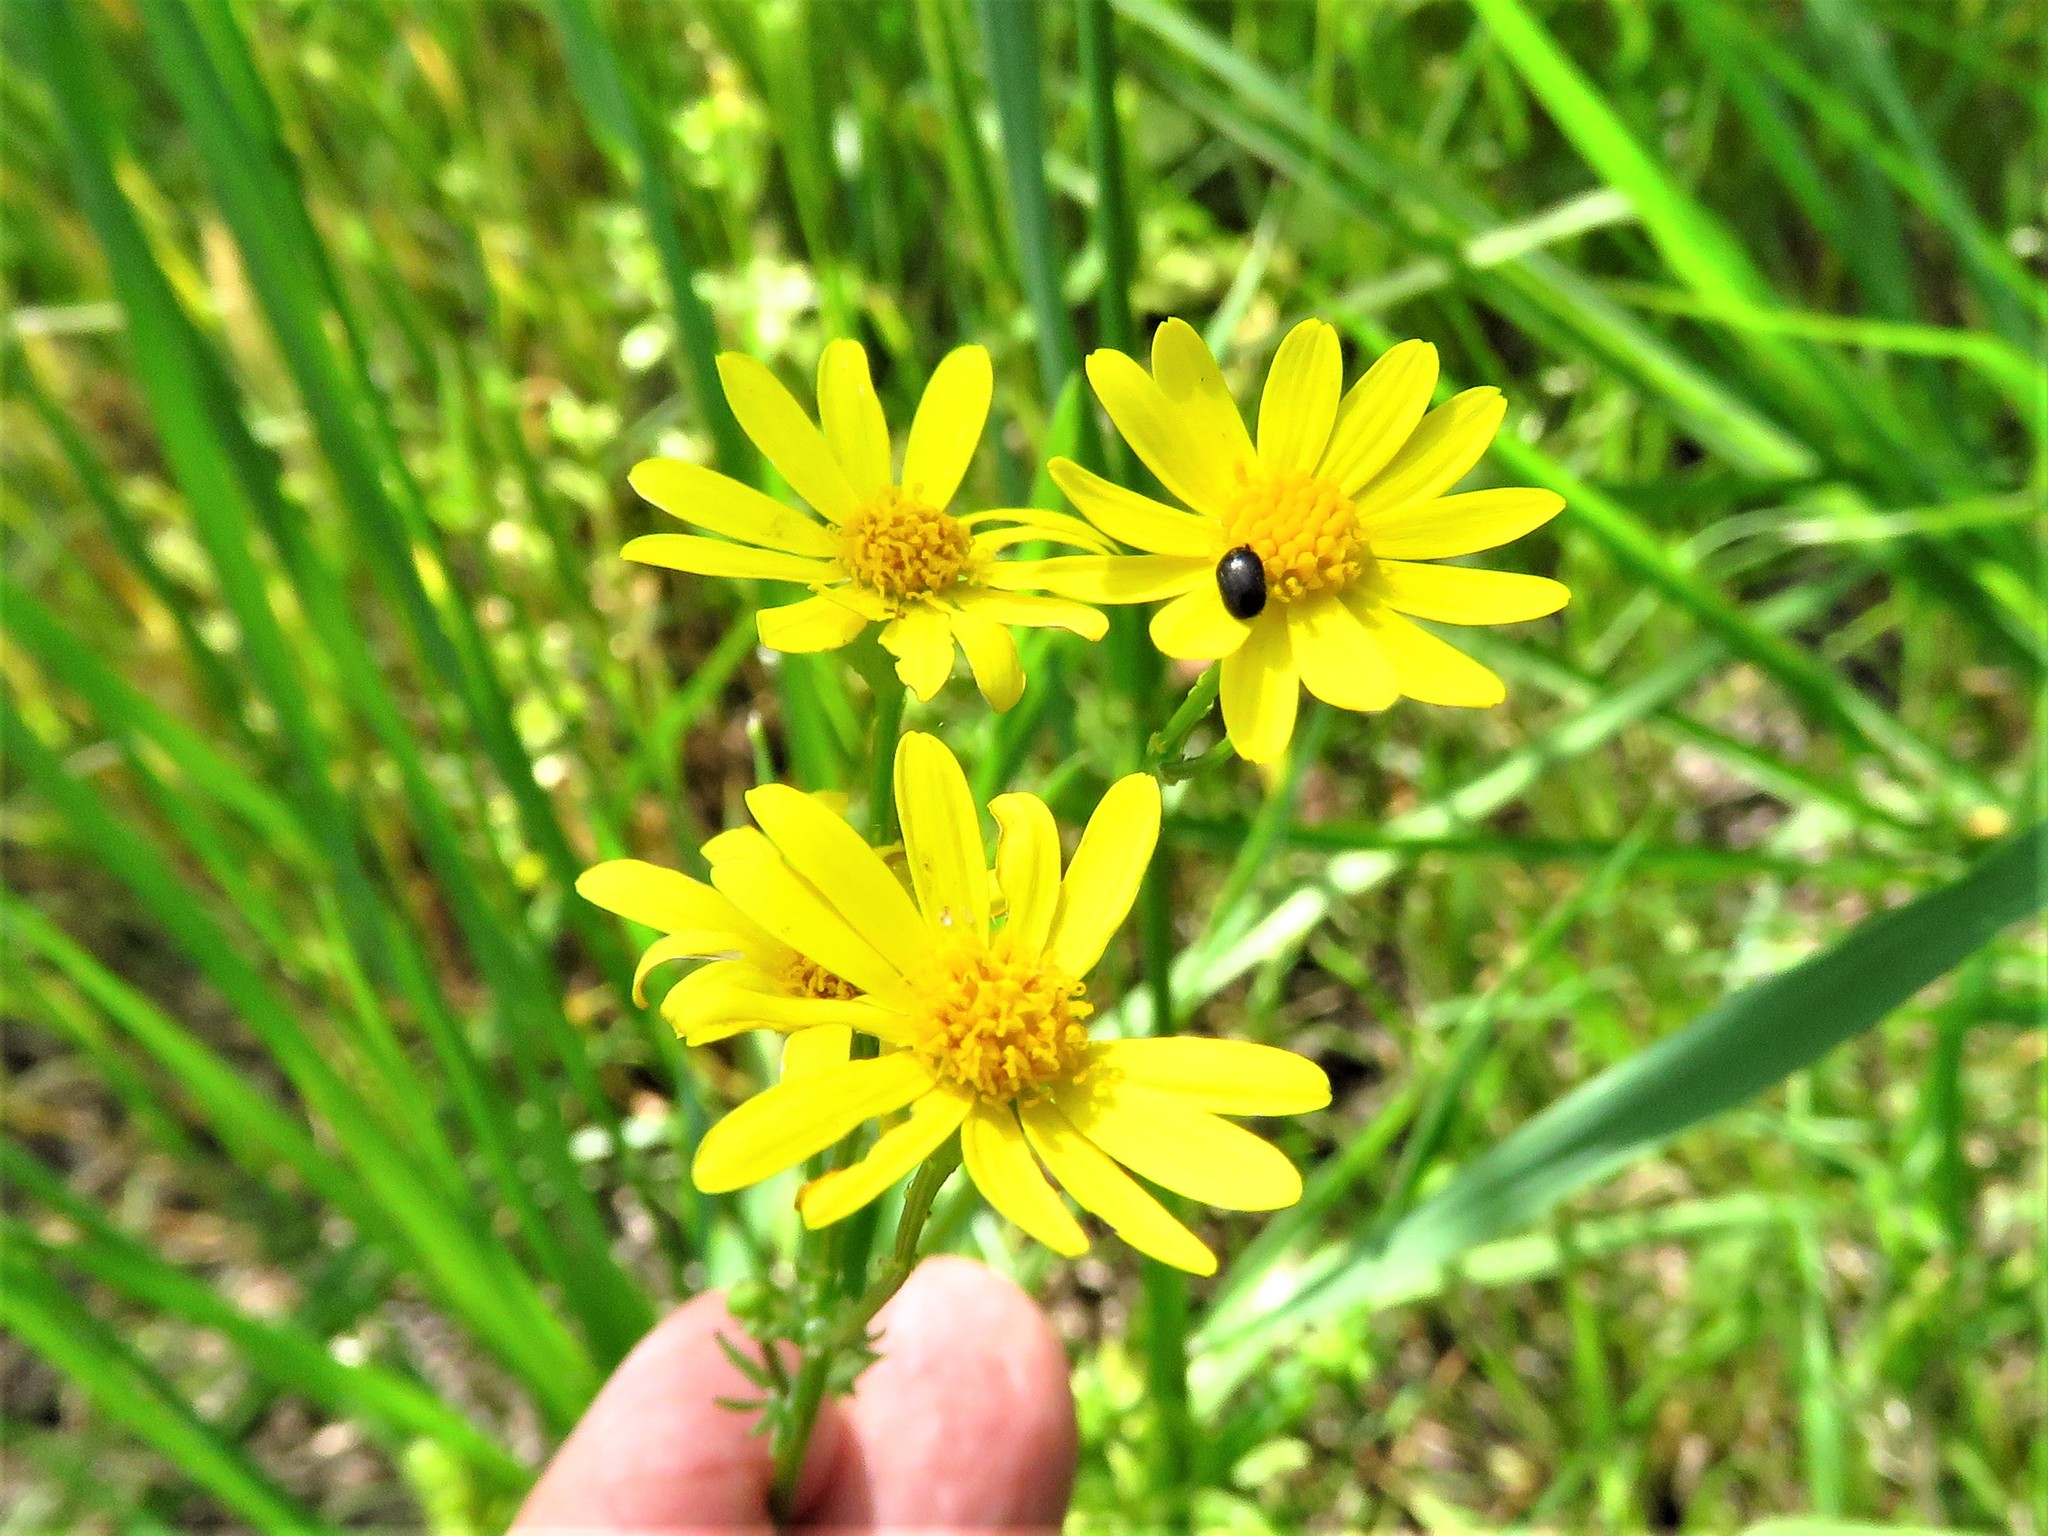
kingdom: Plantae
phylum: Tracheophyta
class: Magnoliopsida
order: Asterales
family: Asteraceae
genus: Packera
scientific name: Packera tampicana
